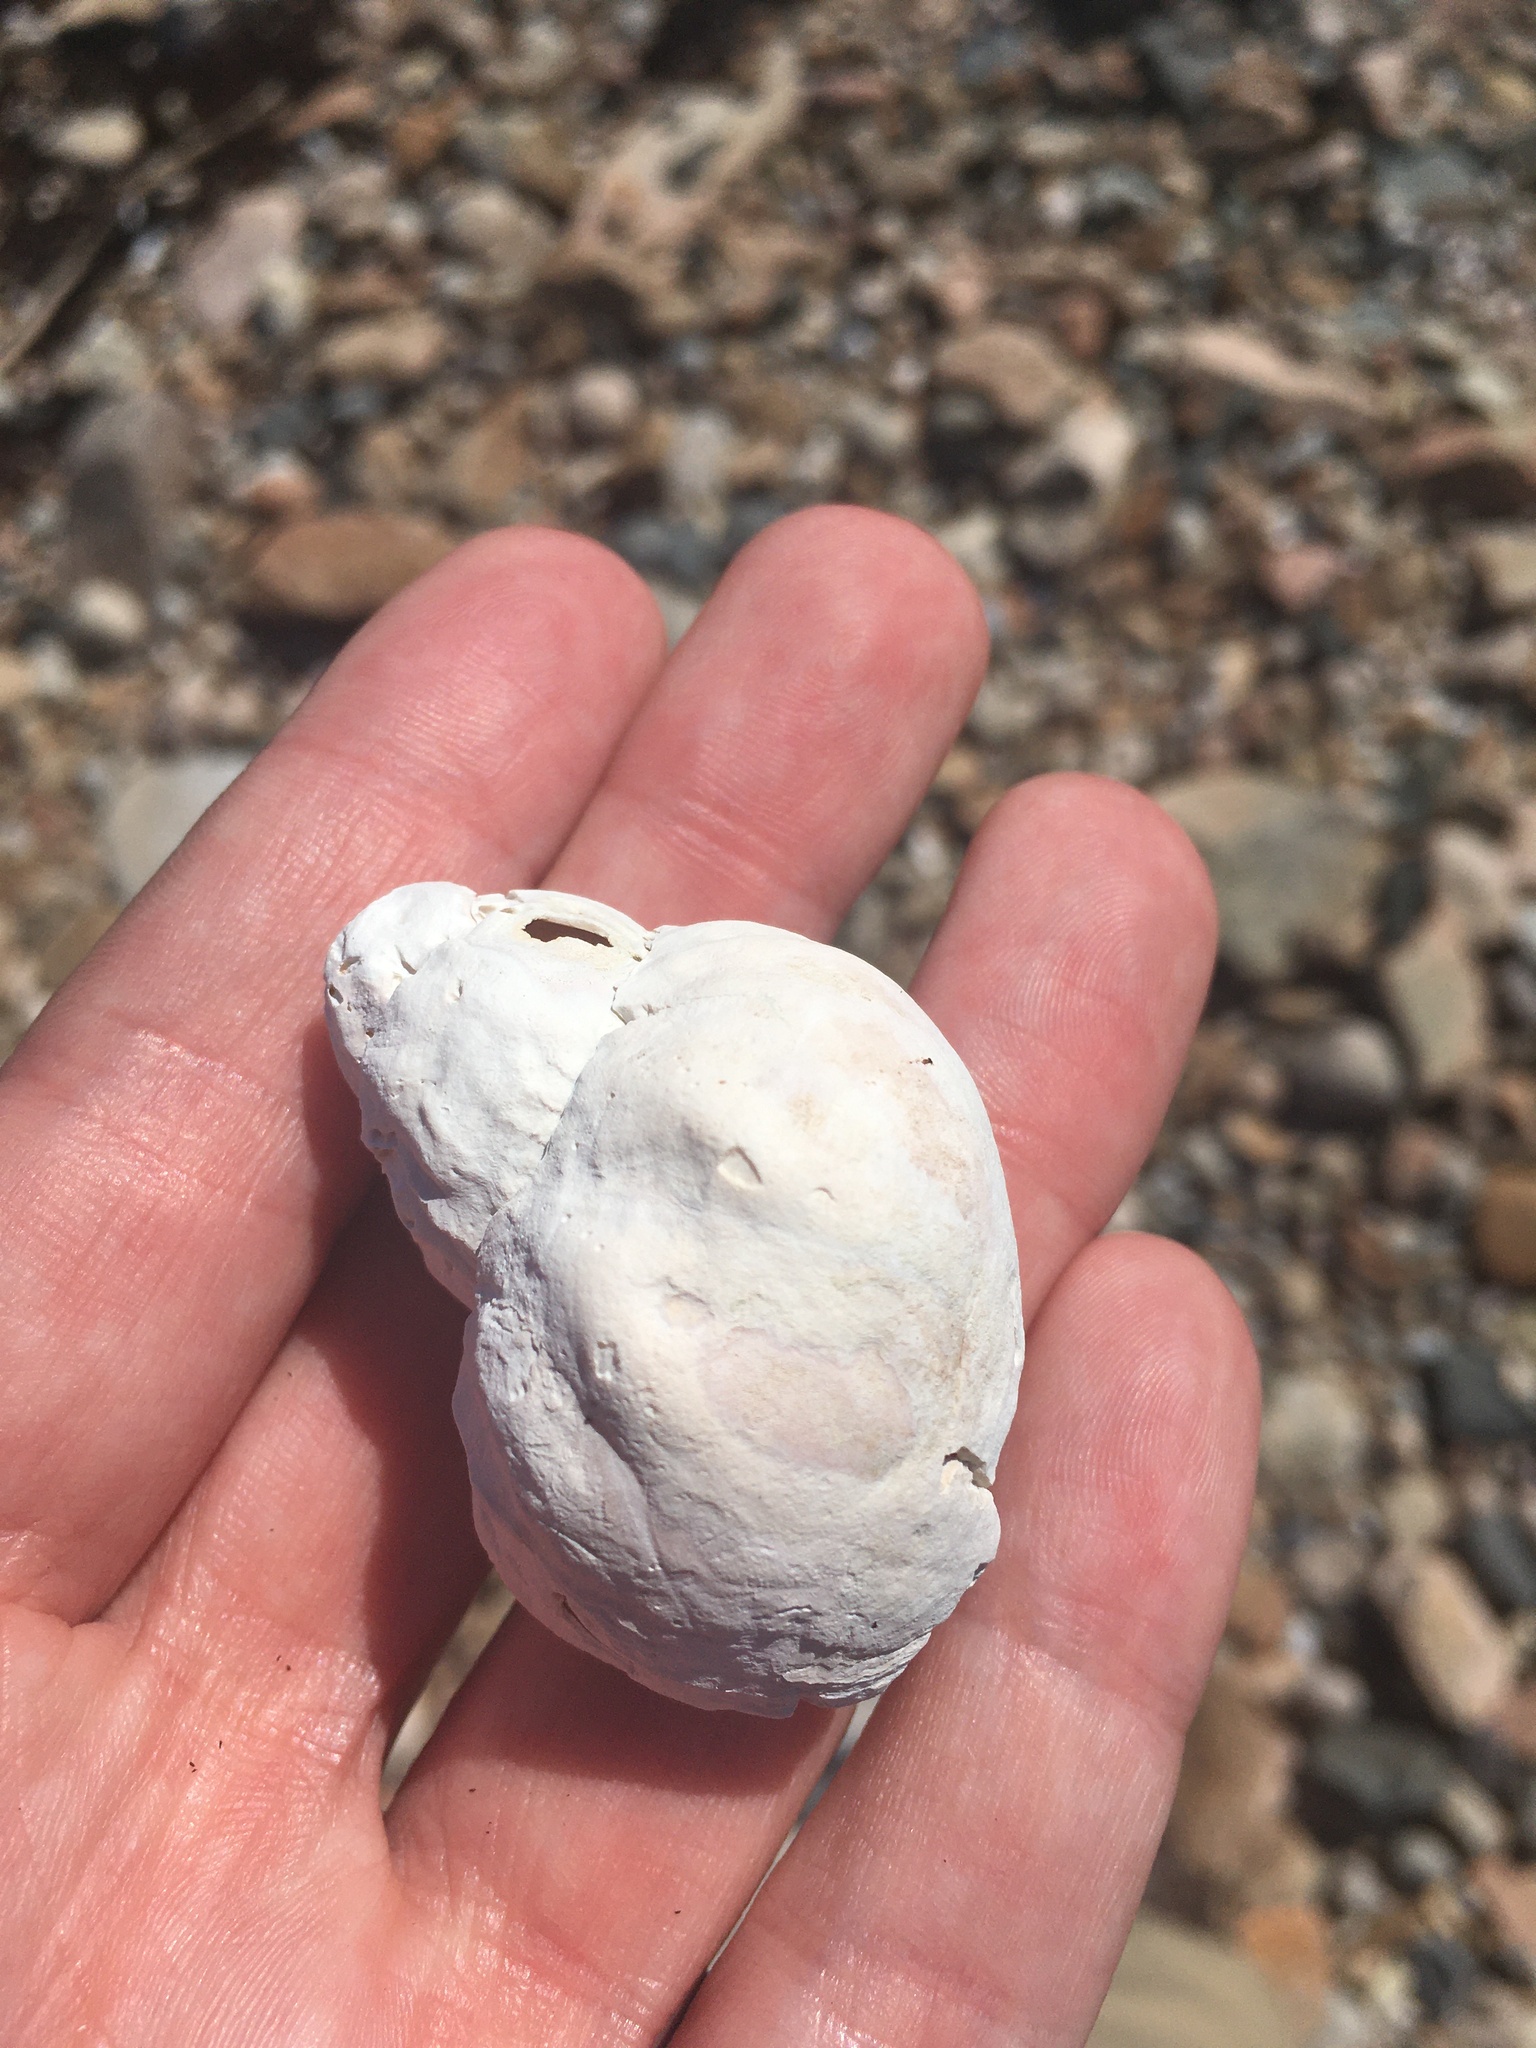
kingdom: Animalia
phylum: Mollusca
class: Gastropoda
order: Neogastropoda
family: Buccinidae
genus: Buccinum
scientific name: Buccinum undatum
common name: Common whelk
